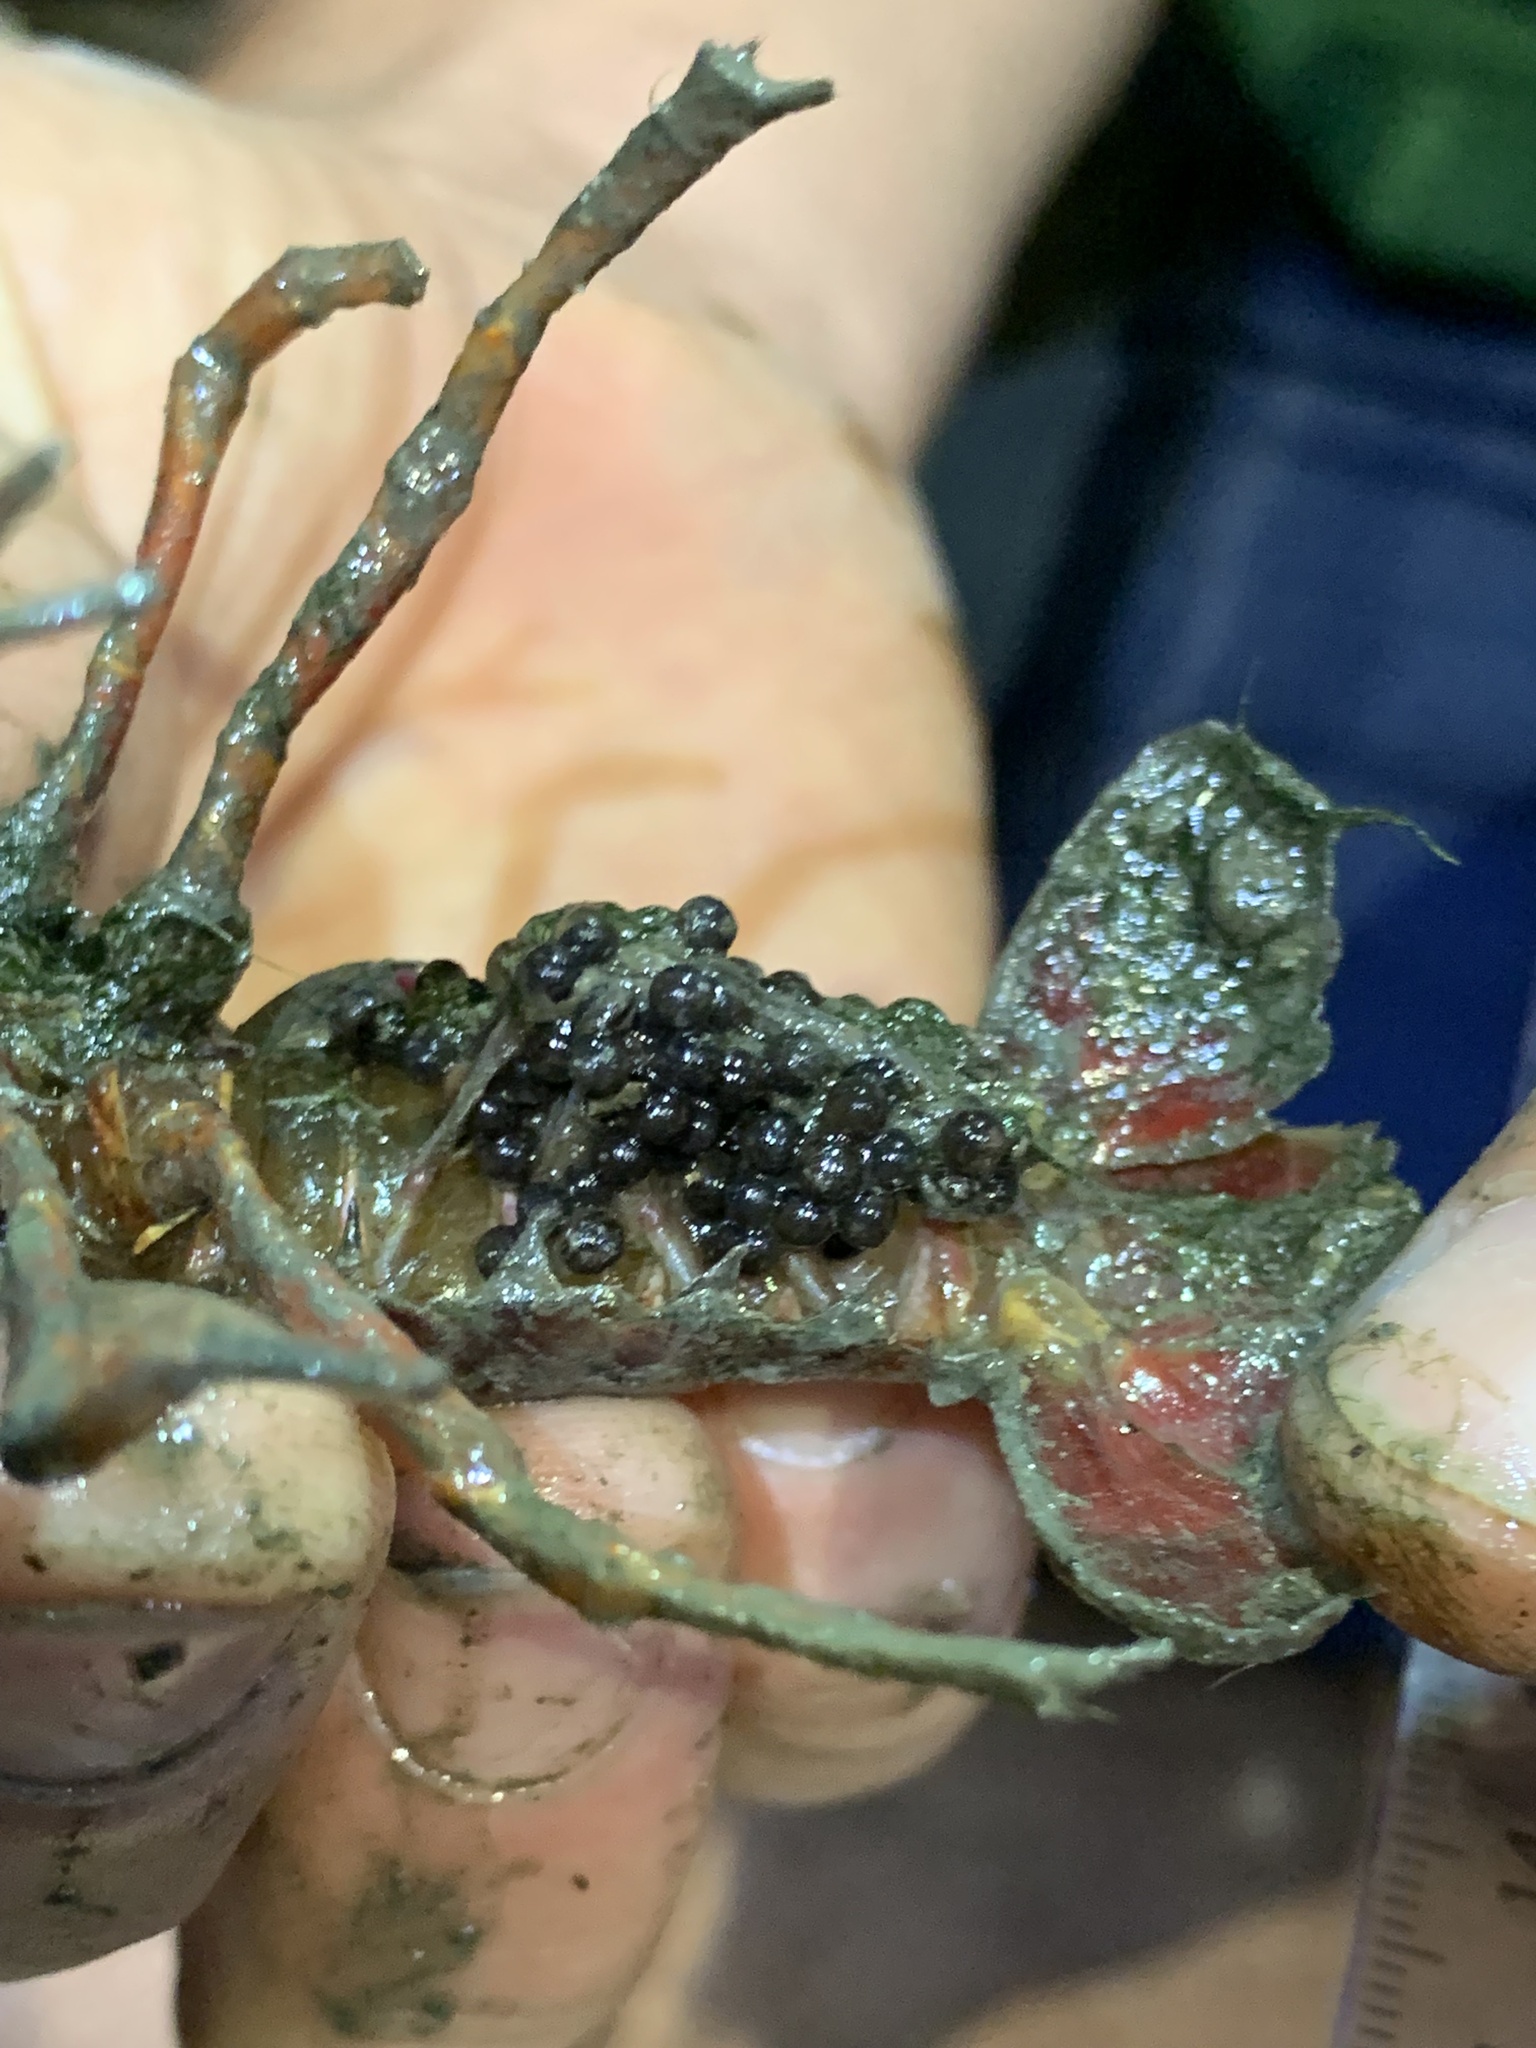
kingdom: Animalia
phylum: Arthropoda
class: Malacostraca
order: Decapoda
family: Cambaridae
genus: Procambarus
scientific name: Procambarus clarkii
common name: Red swamp crayfish
